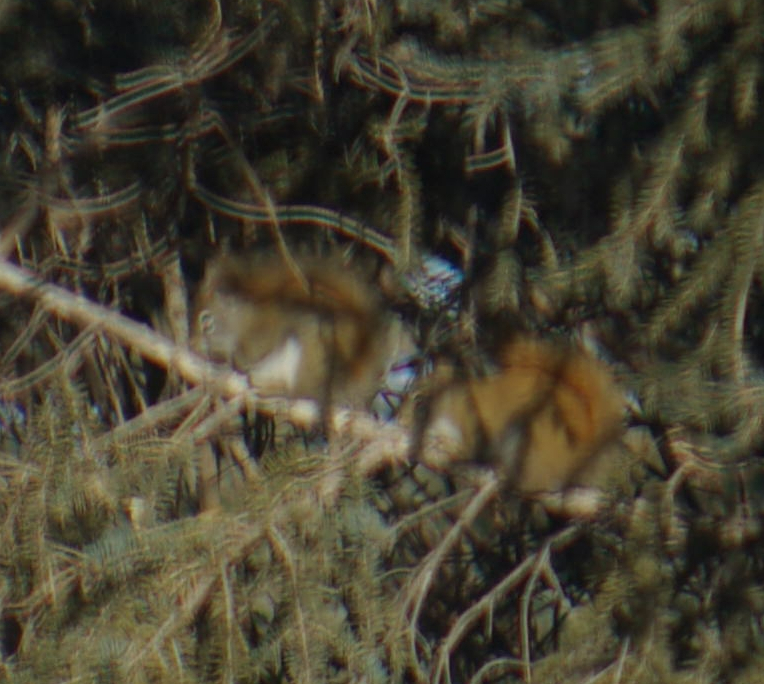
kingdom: Animalia
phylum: Chordata
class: Mammalia
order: Rodentia
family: Sciuridae
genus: Tamiasciurus
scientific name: Tamiasciurus hudsonicus
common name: Red squirrel
